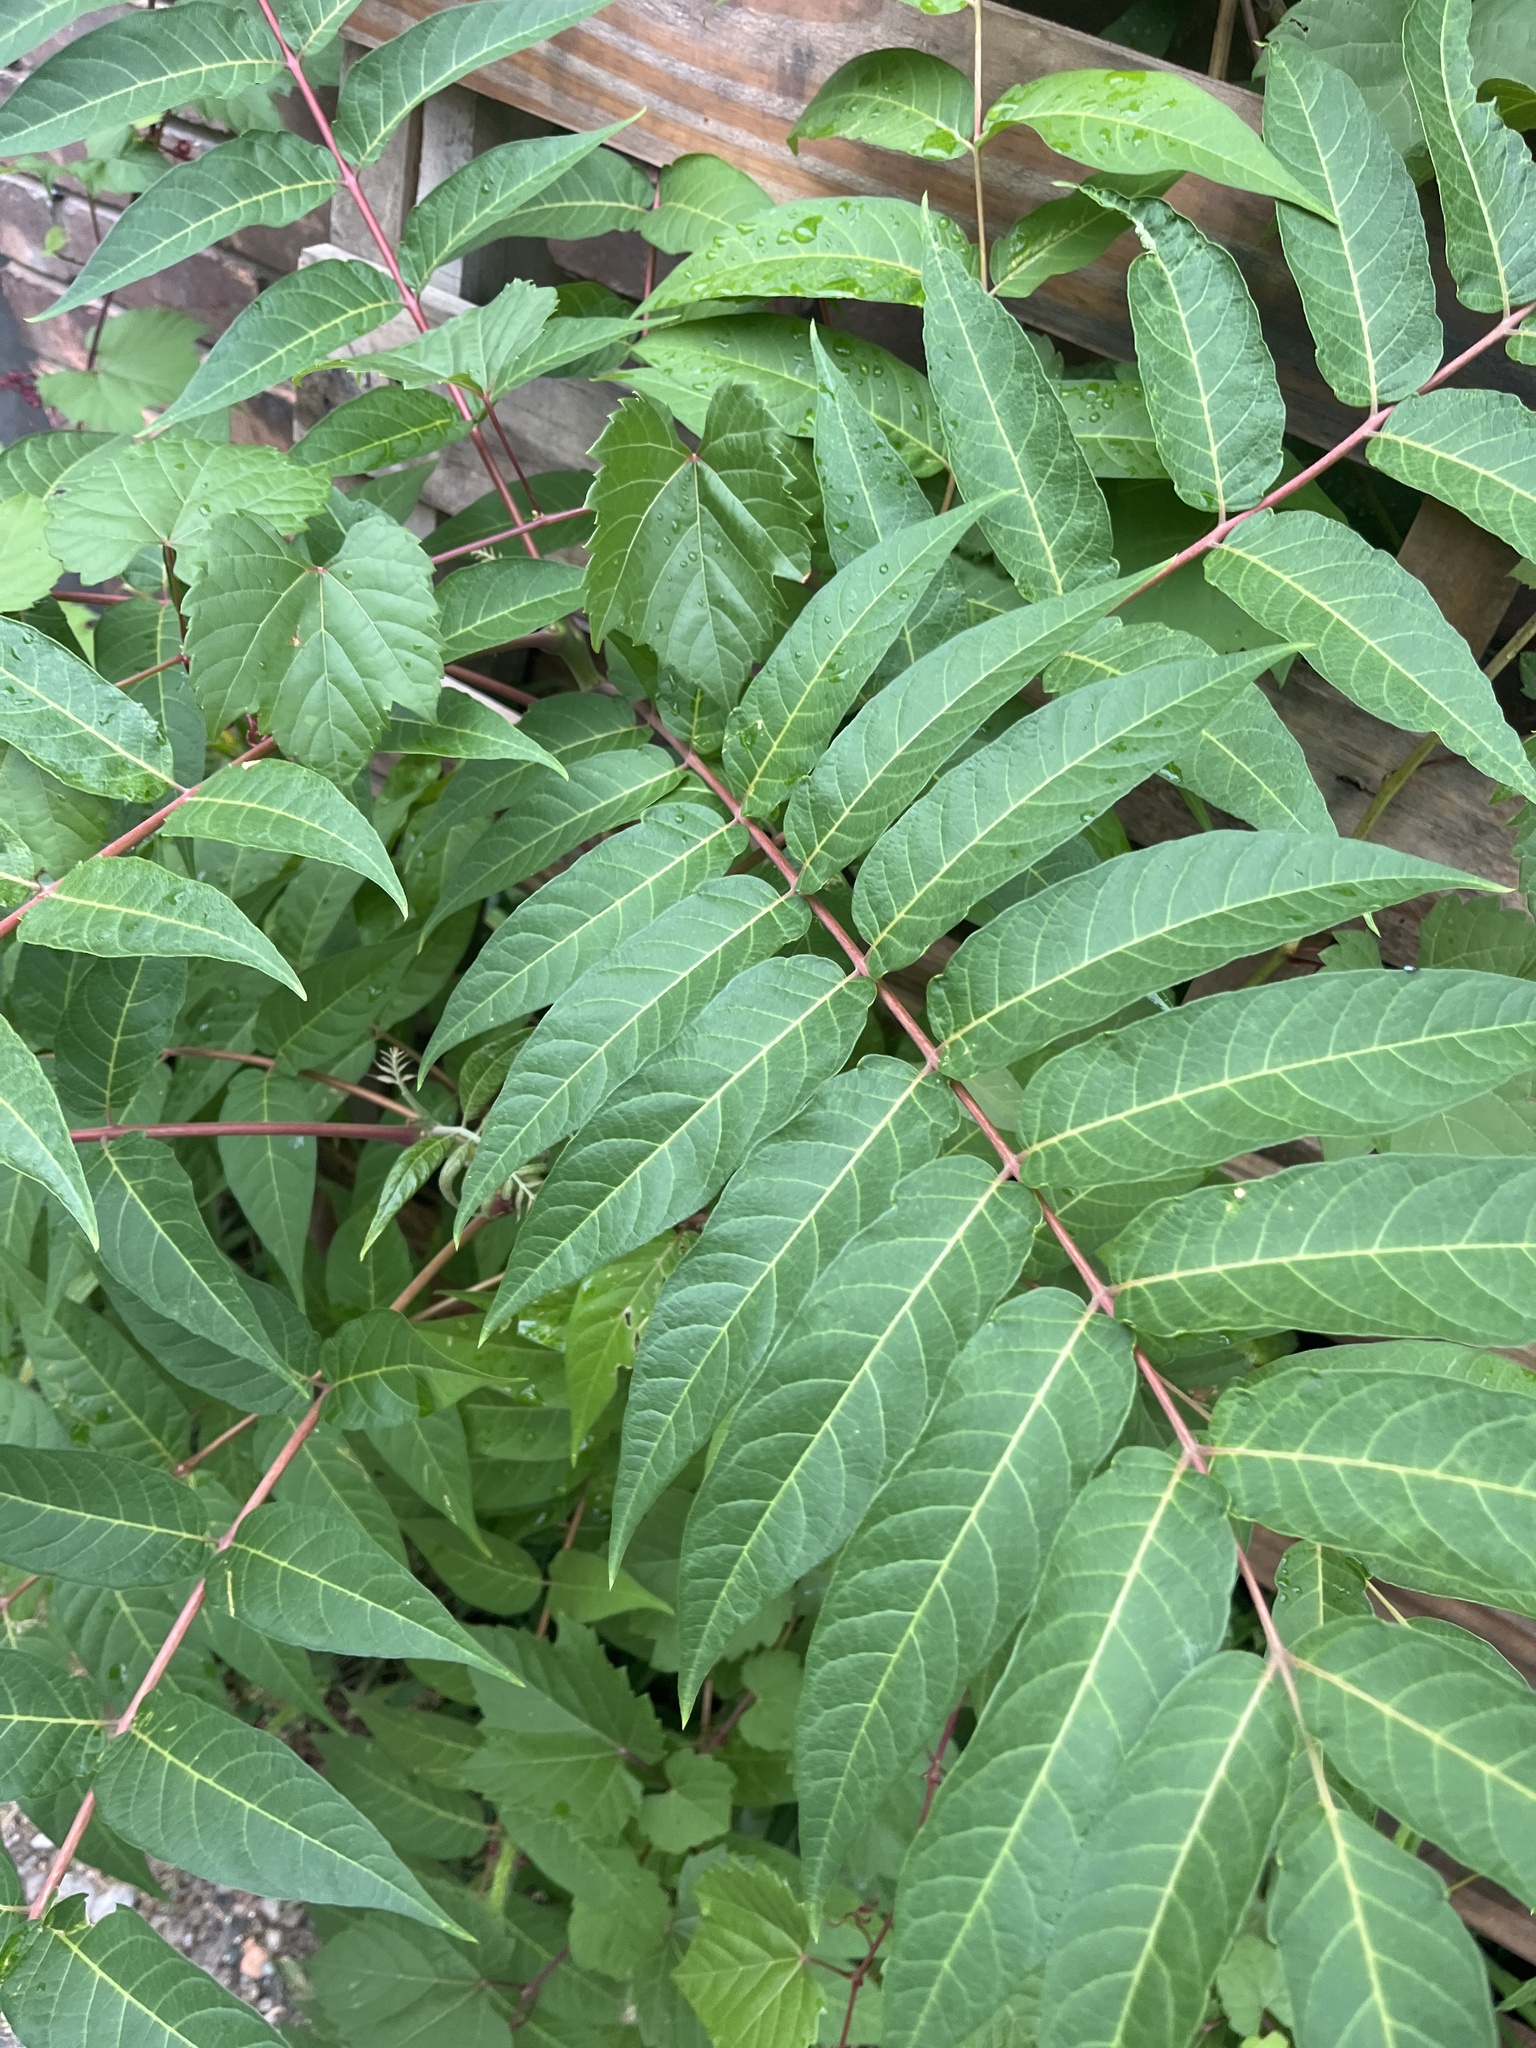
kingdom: Plantae
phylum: Tracheophyta
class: Magnoliopsida
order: Sapindales
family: Simaroubaceae
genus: Ailanthus
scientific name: Ailanthus altissima
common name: Tree-of-heaven
